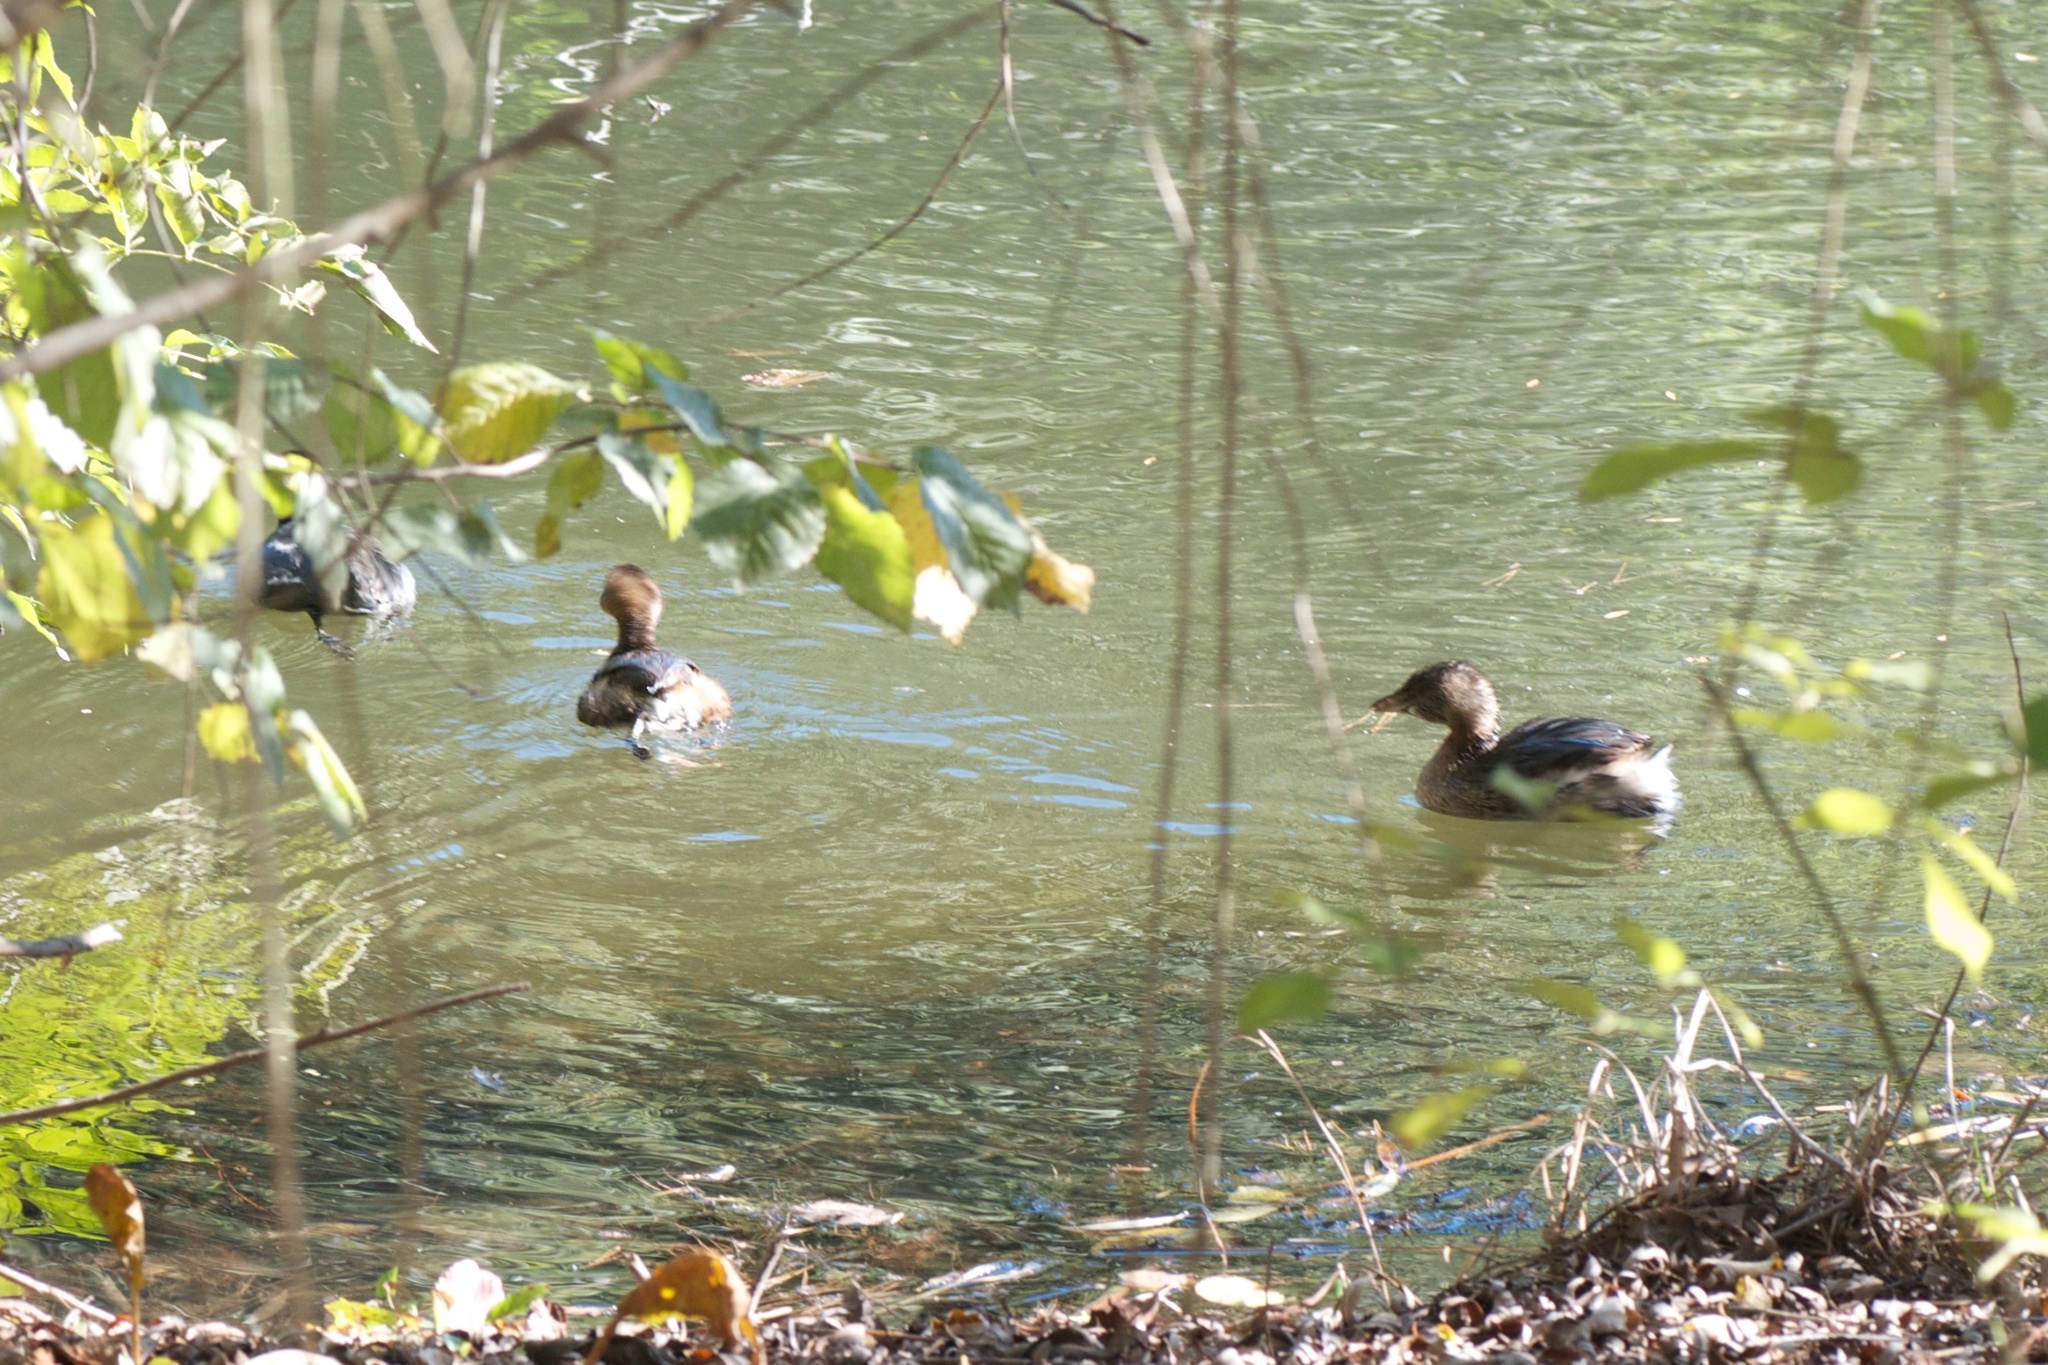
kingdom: Animalia
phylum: Chordata
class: Aves
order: Podicipediformes
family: Podicipedidae
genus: Podilymbus
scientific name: Podilymbus podiceps
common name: Pied-billed grebe
